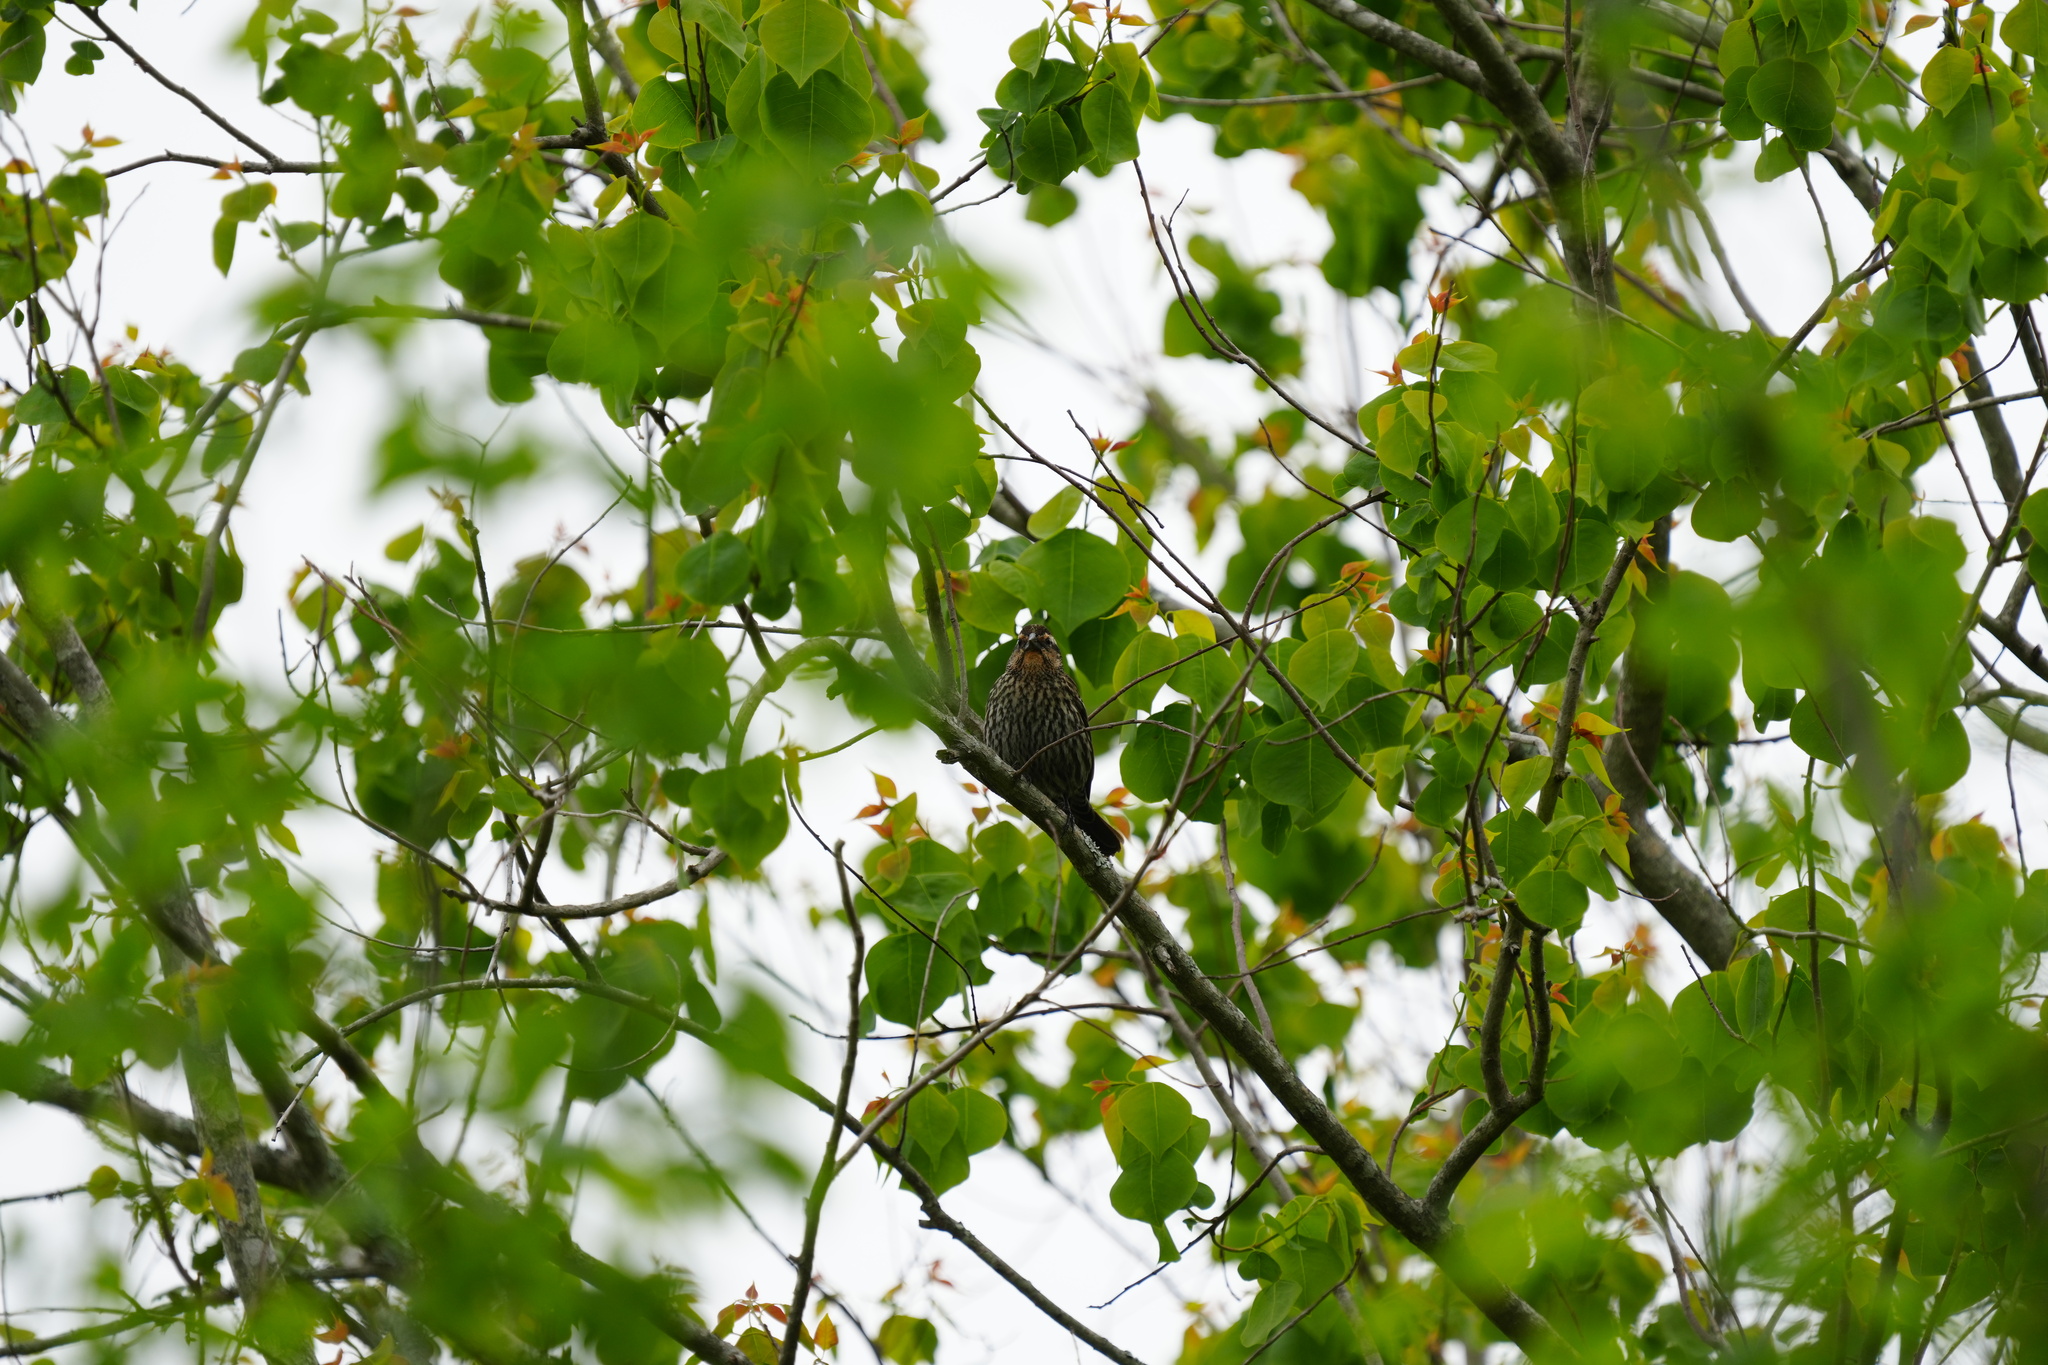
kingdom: Animalia
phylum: Chordata
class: Aves
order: Passeriformes
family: Icteridae
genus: Agelaius
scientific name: Agelaius phoeniceus
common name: Red-winged blackbird
